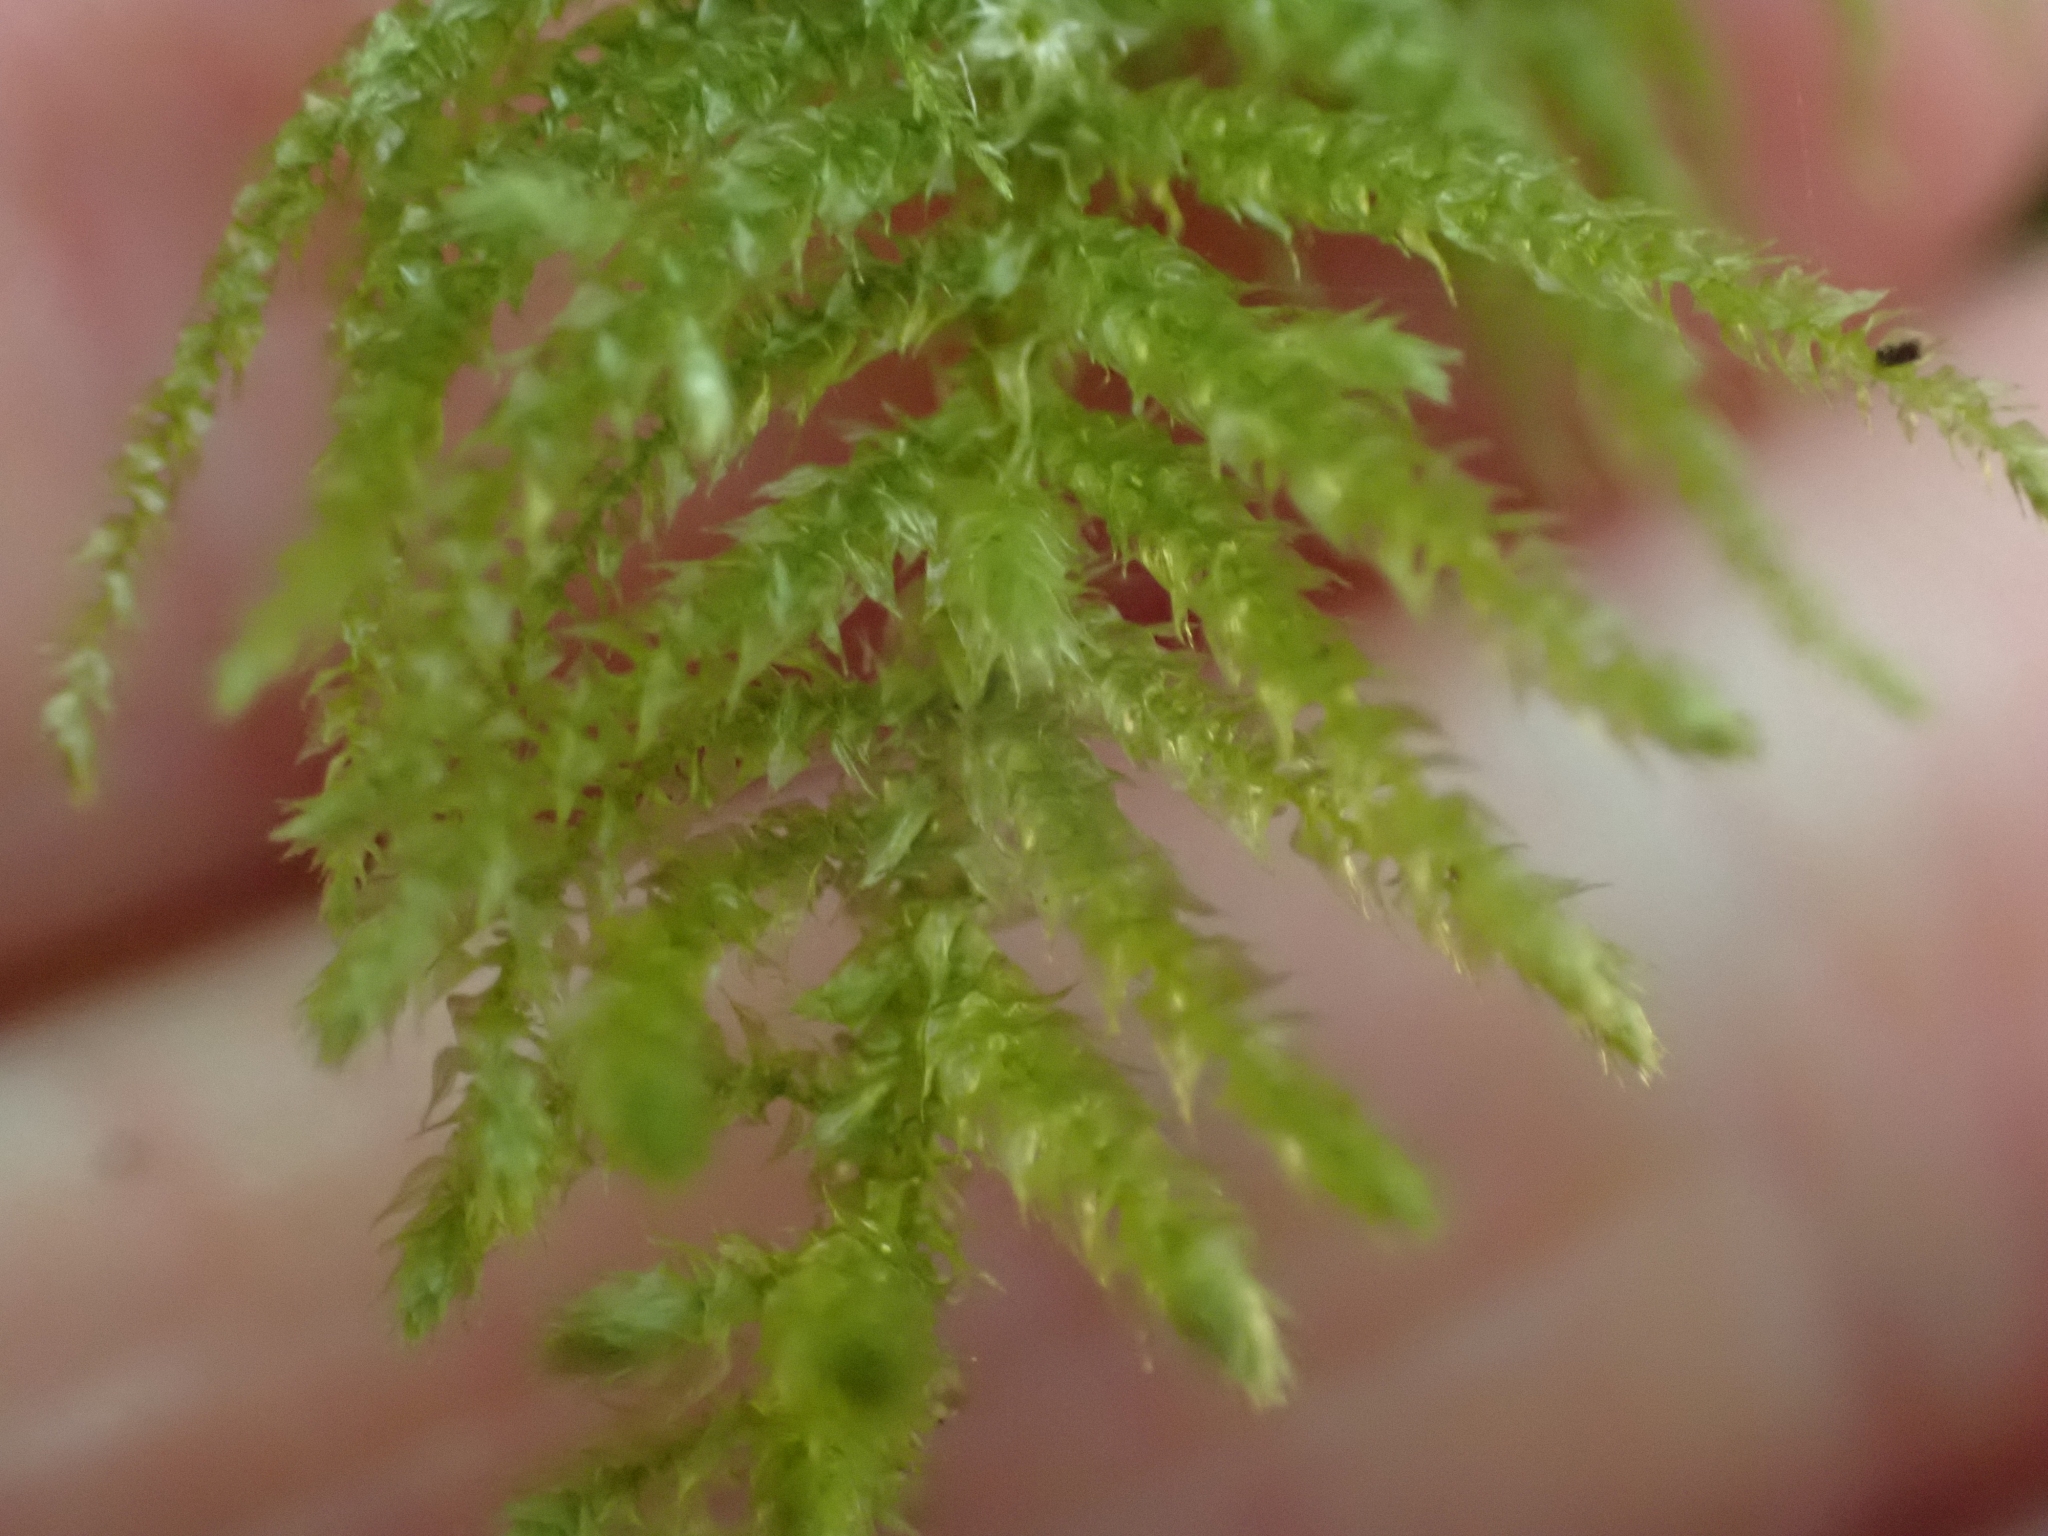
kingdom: Plantae
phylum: Bryophyta
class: Bryopsida
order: Hypnales
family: Brachytheciaceae
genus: Kindbergia
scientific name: Kindbergia oregana
